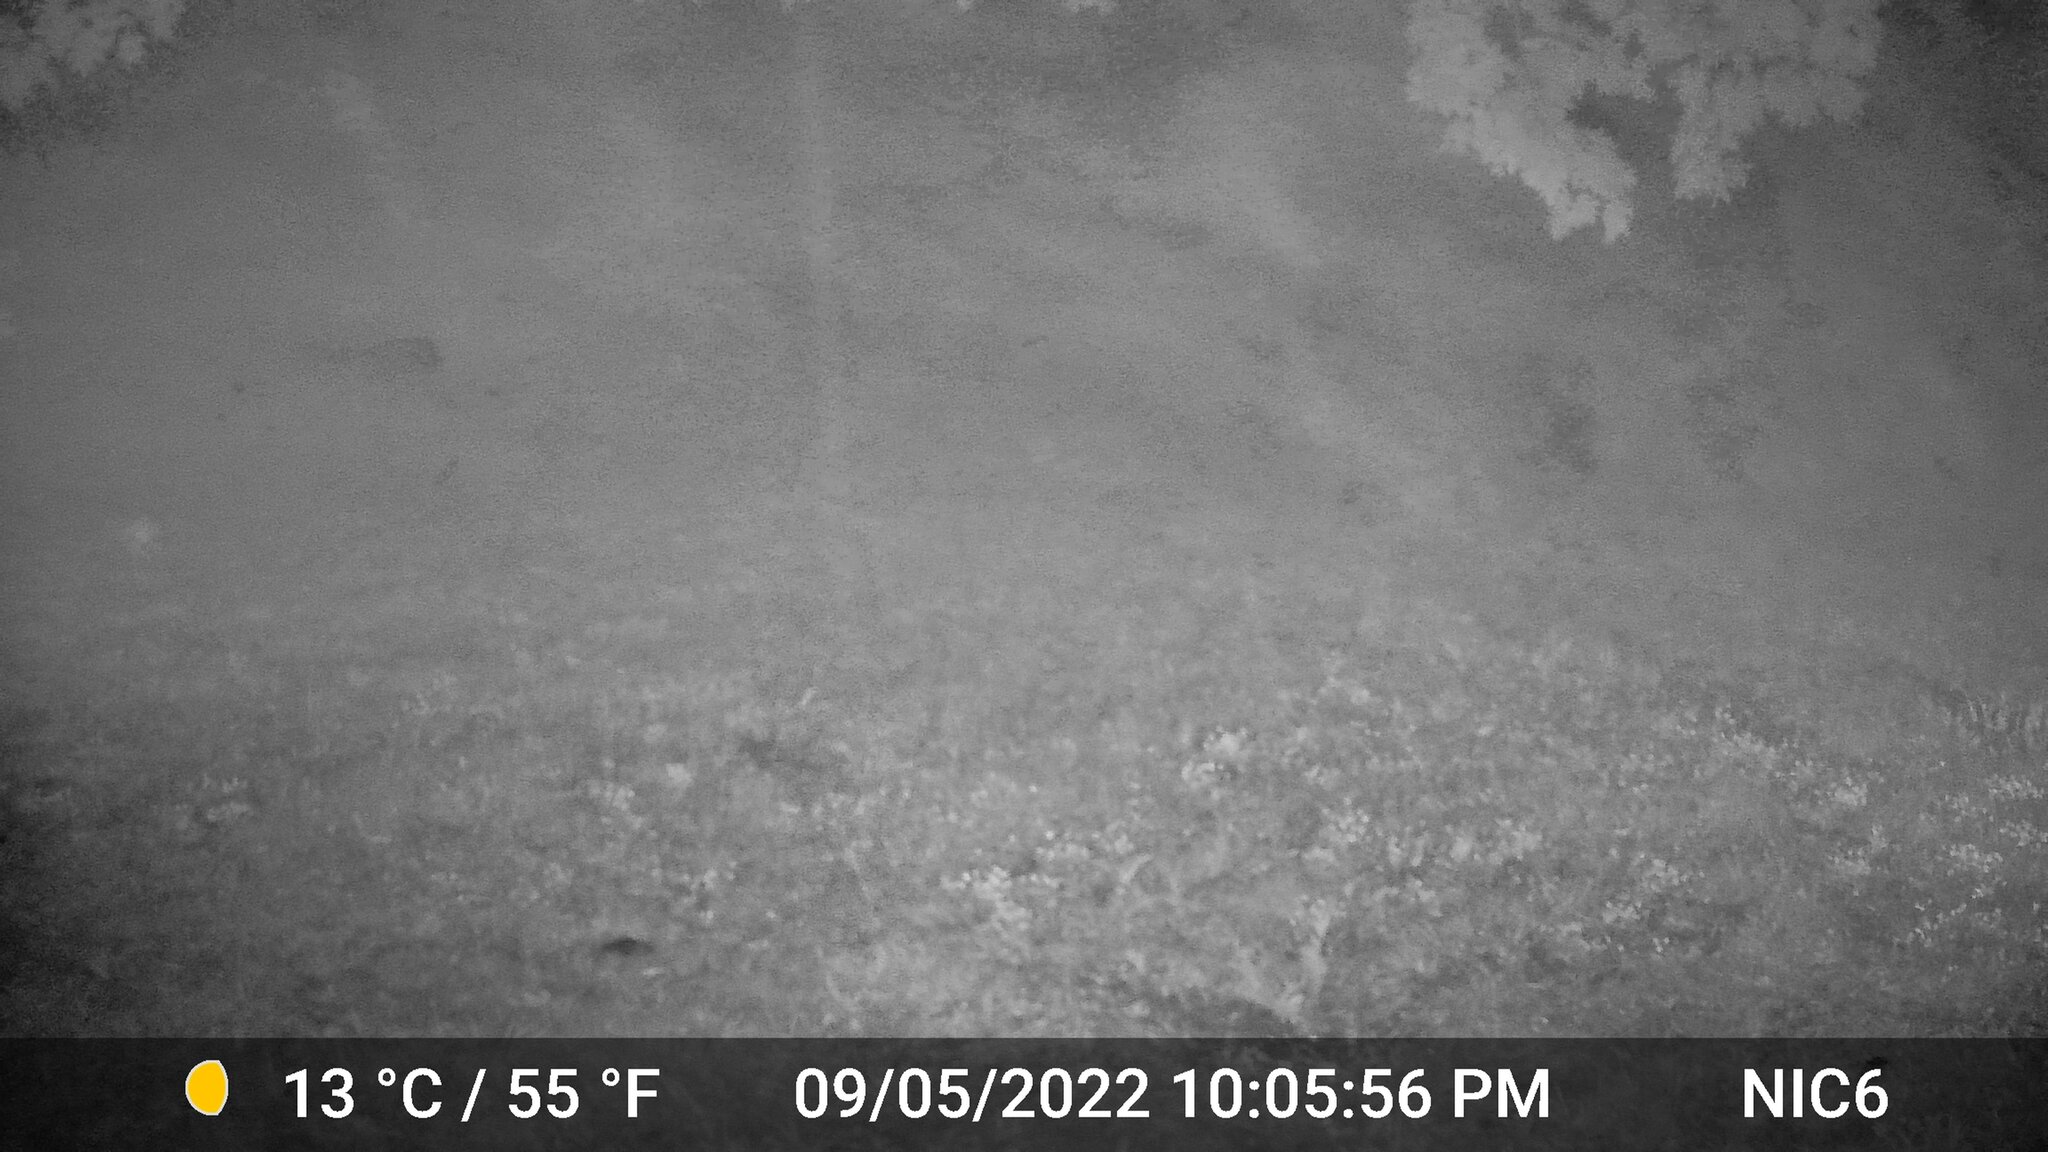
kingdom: Animalia
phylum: Chordata
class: Mammalia
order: Carnivora
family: Canidae
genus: Canis
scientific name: Canis latrans
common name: Coyote
